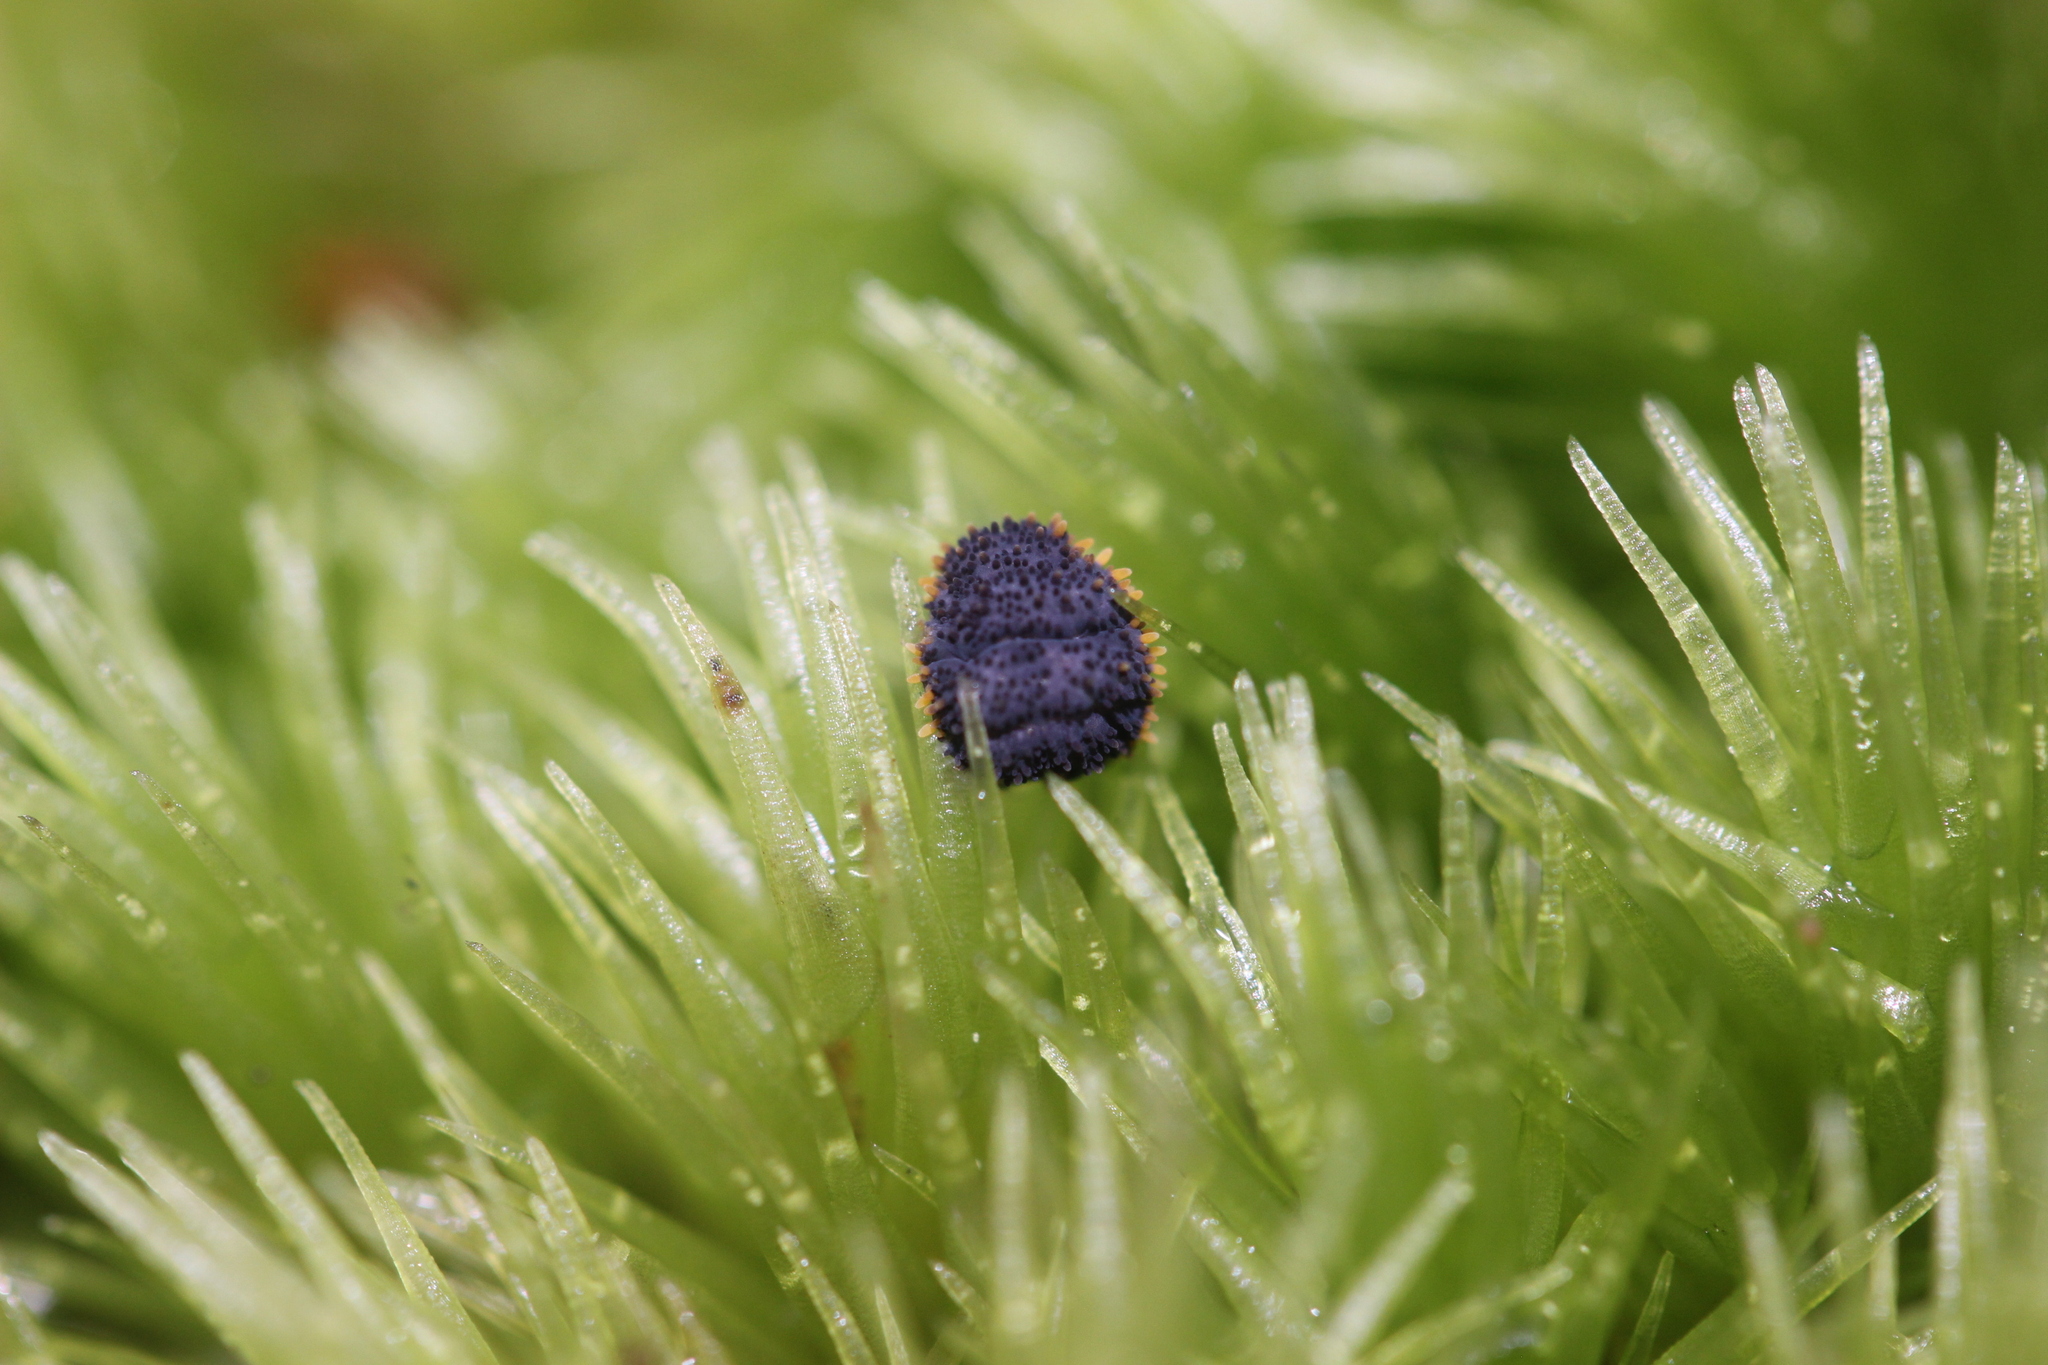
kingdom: Animalia
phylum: Arthropoda
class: Collembola
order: Poduromorpha
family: Neanuridae
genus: Holacanthella
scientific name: Holacanthella laterospinosa
